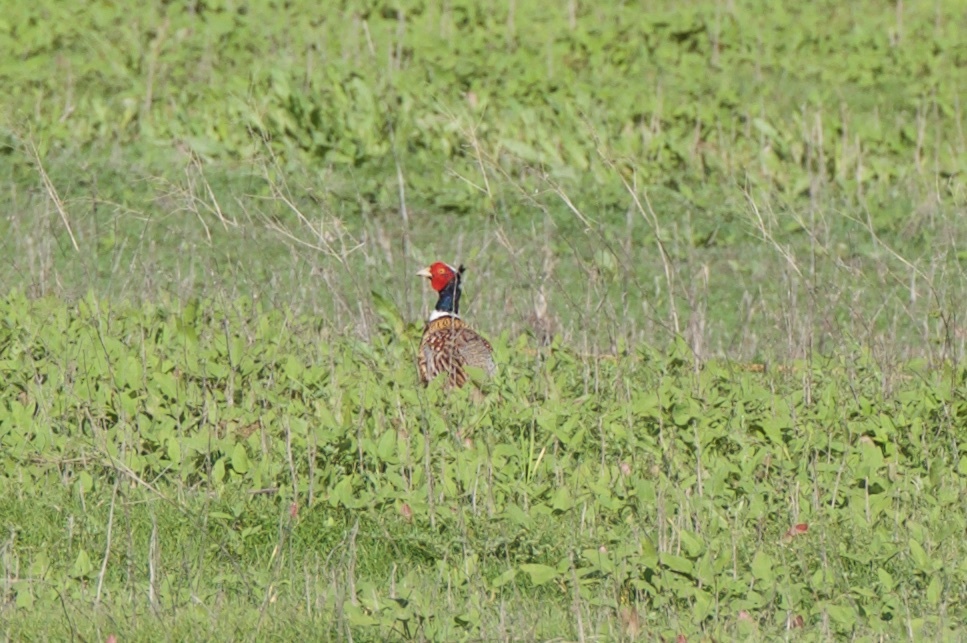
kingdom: Animalia
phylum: Chordata
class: Aves
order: Galliformes
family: Phasianidae
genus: Phasianus
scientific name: Phasianus colchicus
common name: Common pheasant
